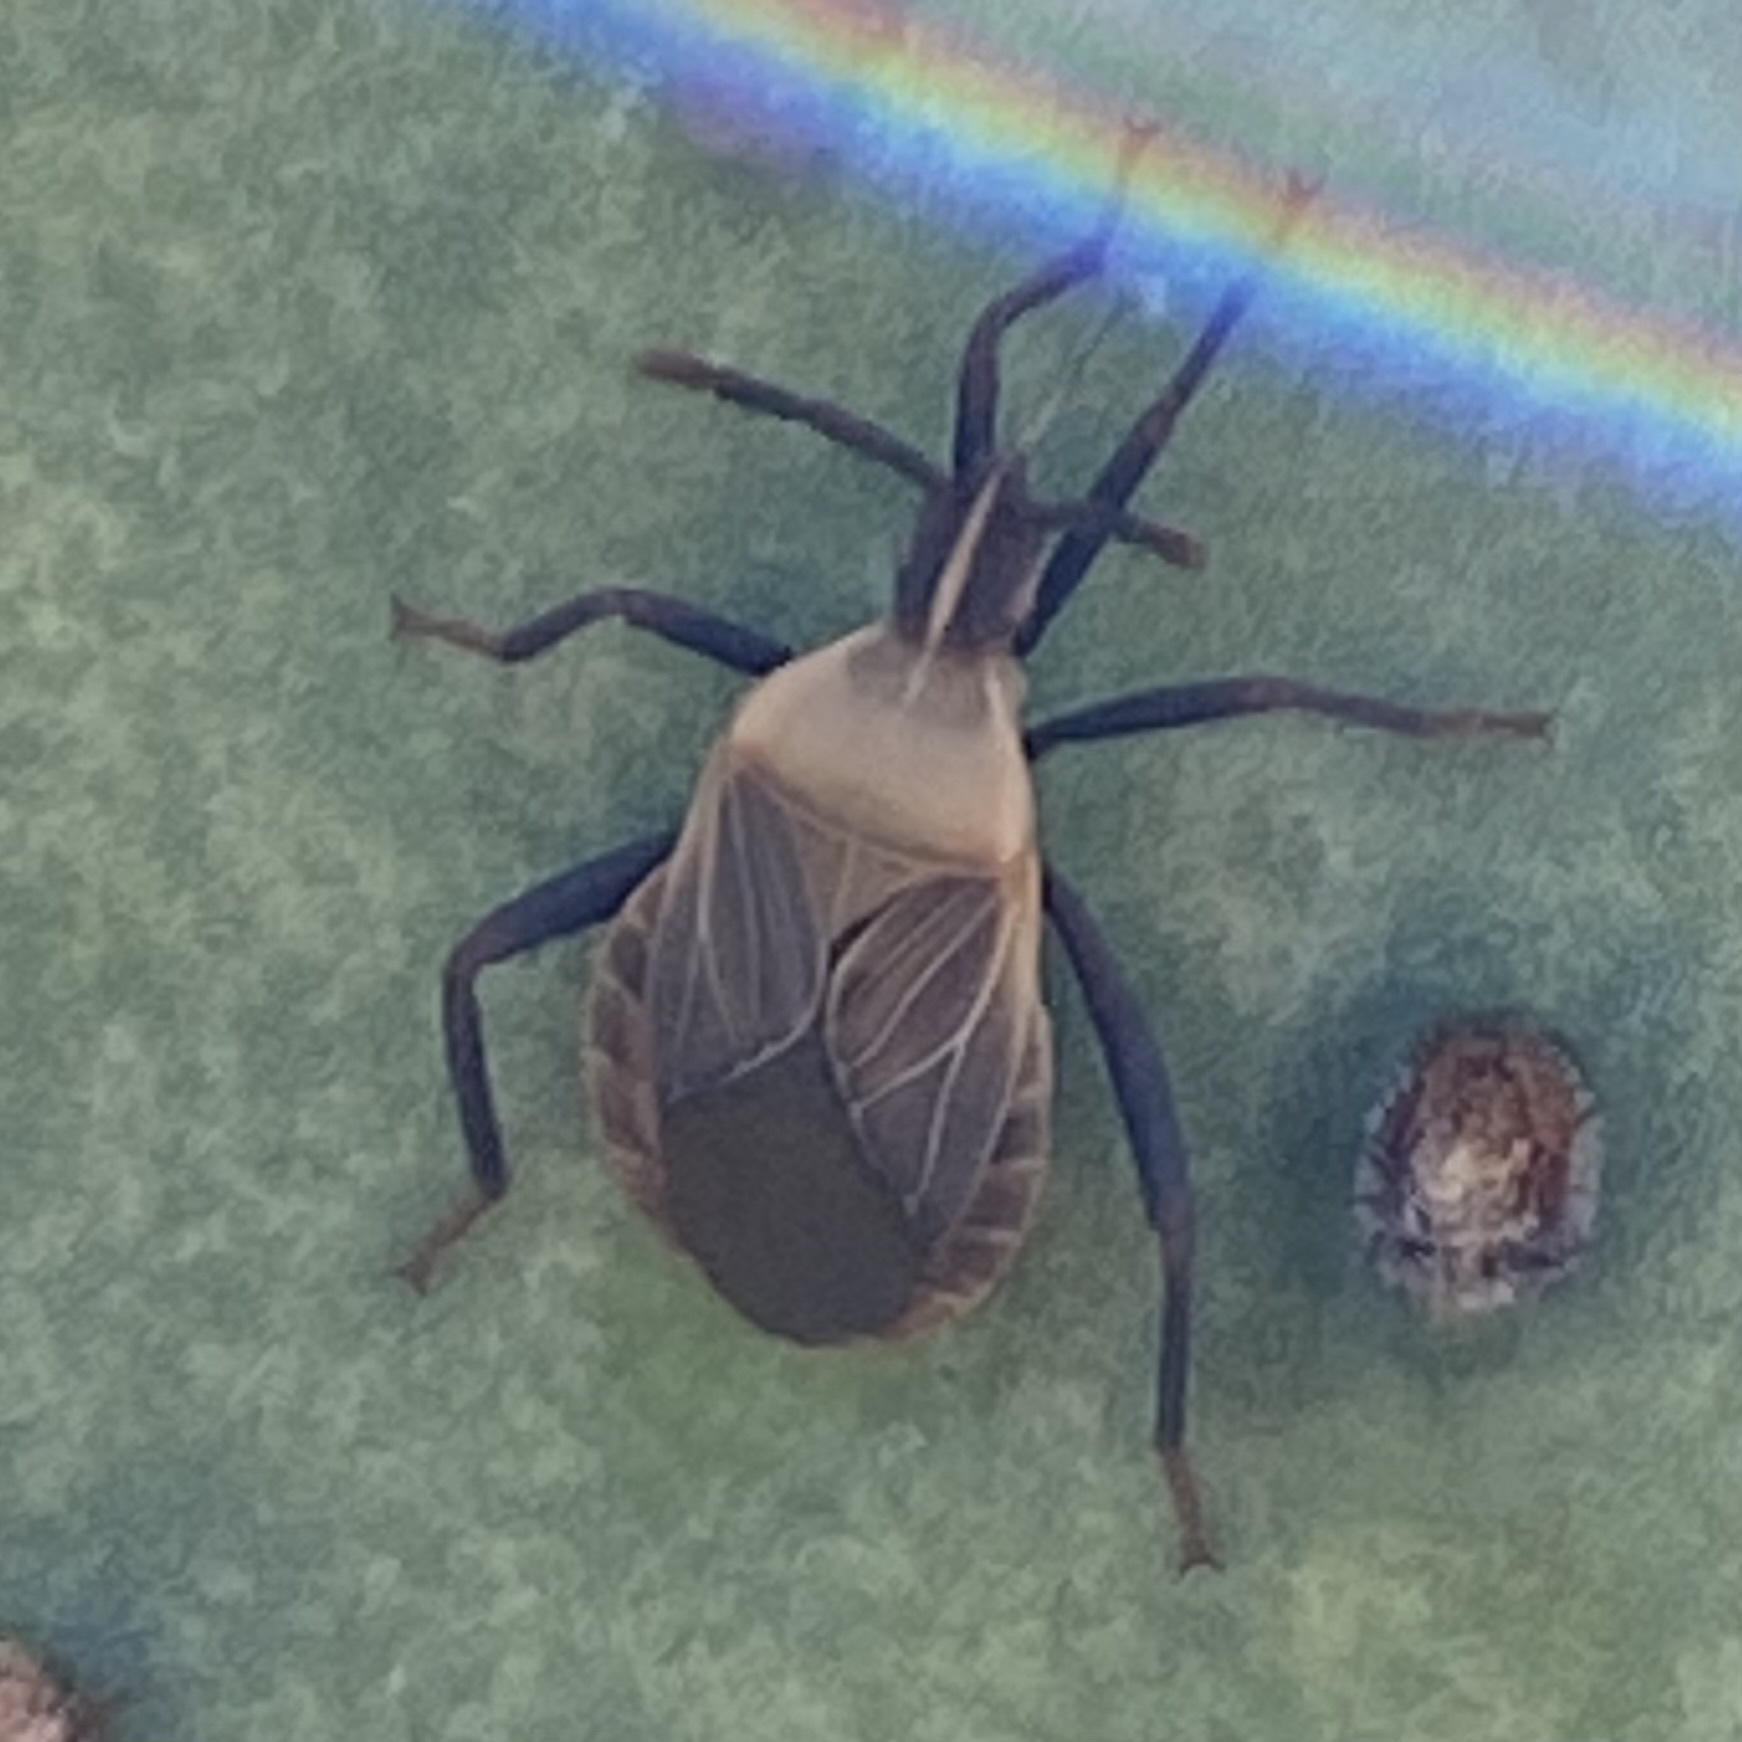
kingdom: Animalia
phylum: Arthropoda
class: Insecta
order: Hemiptera
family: Coreidae
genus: Chelinidea
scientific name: Chelinidea vittiger
